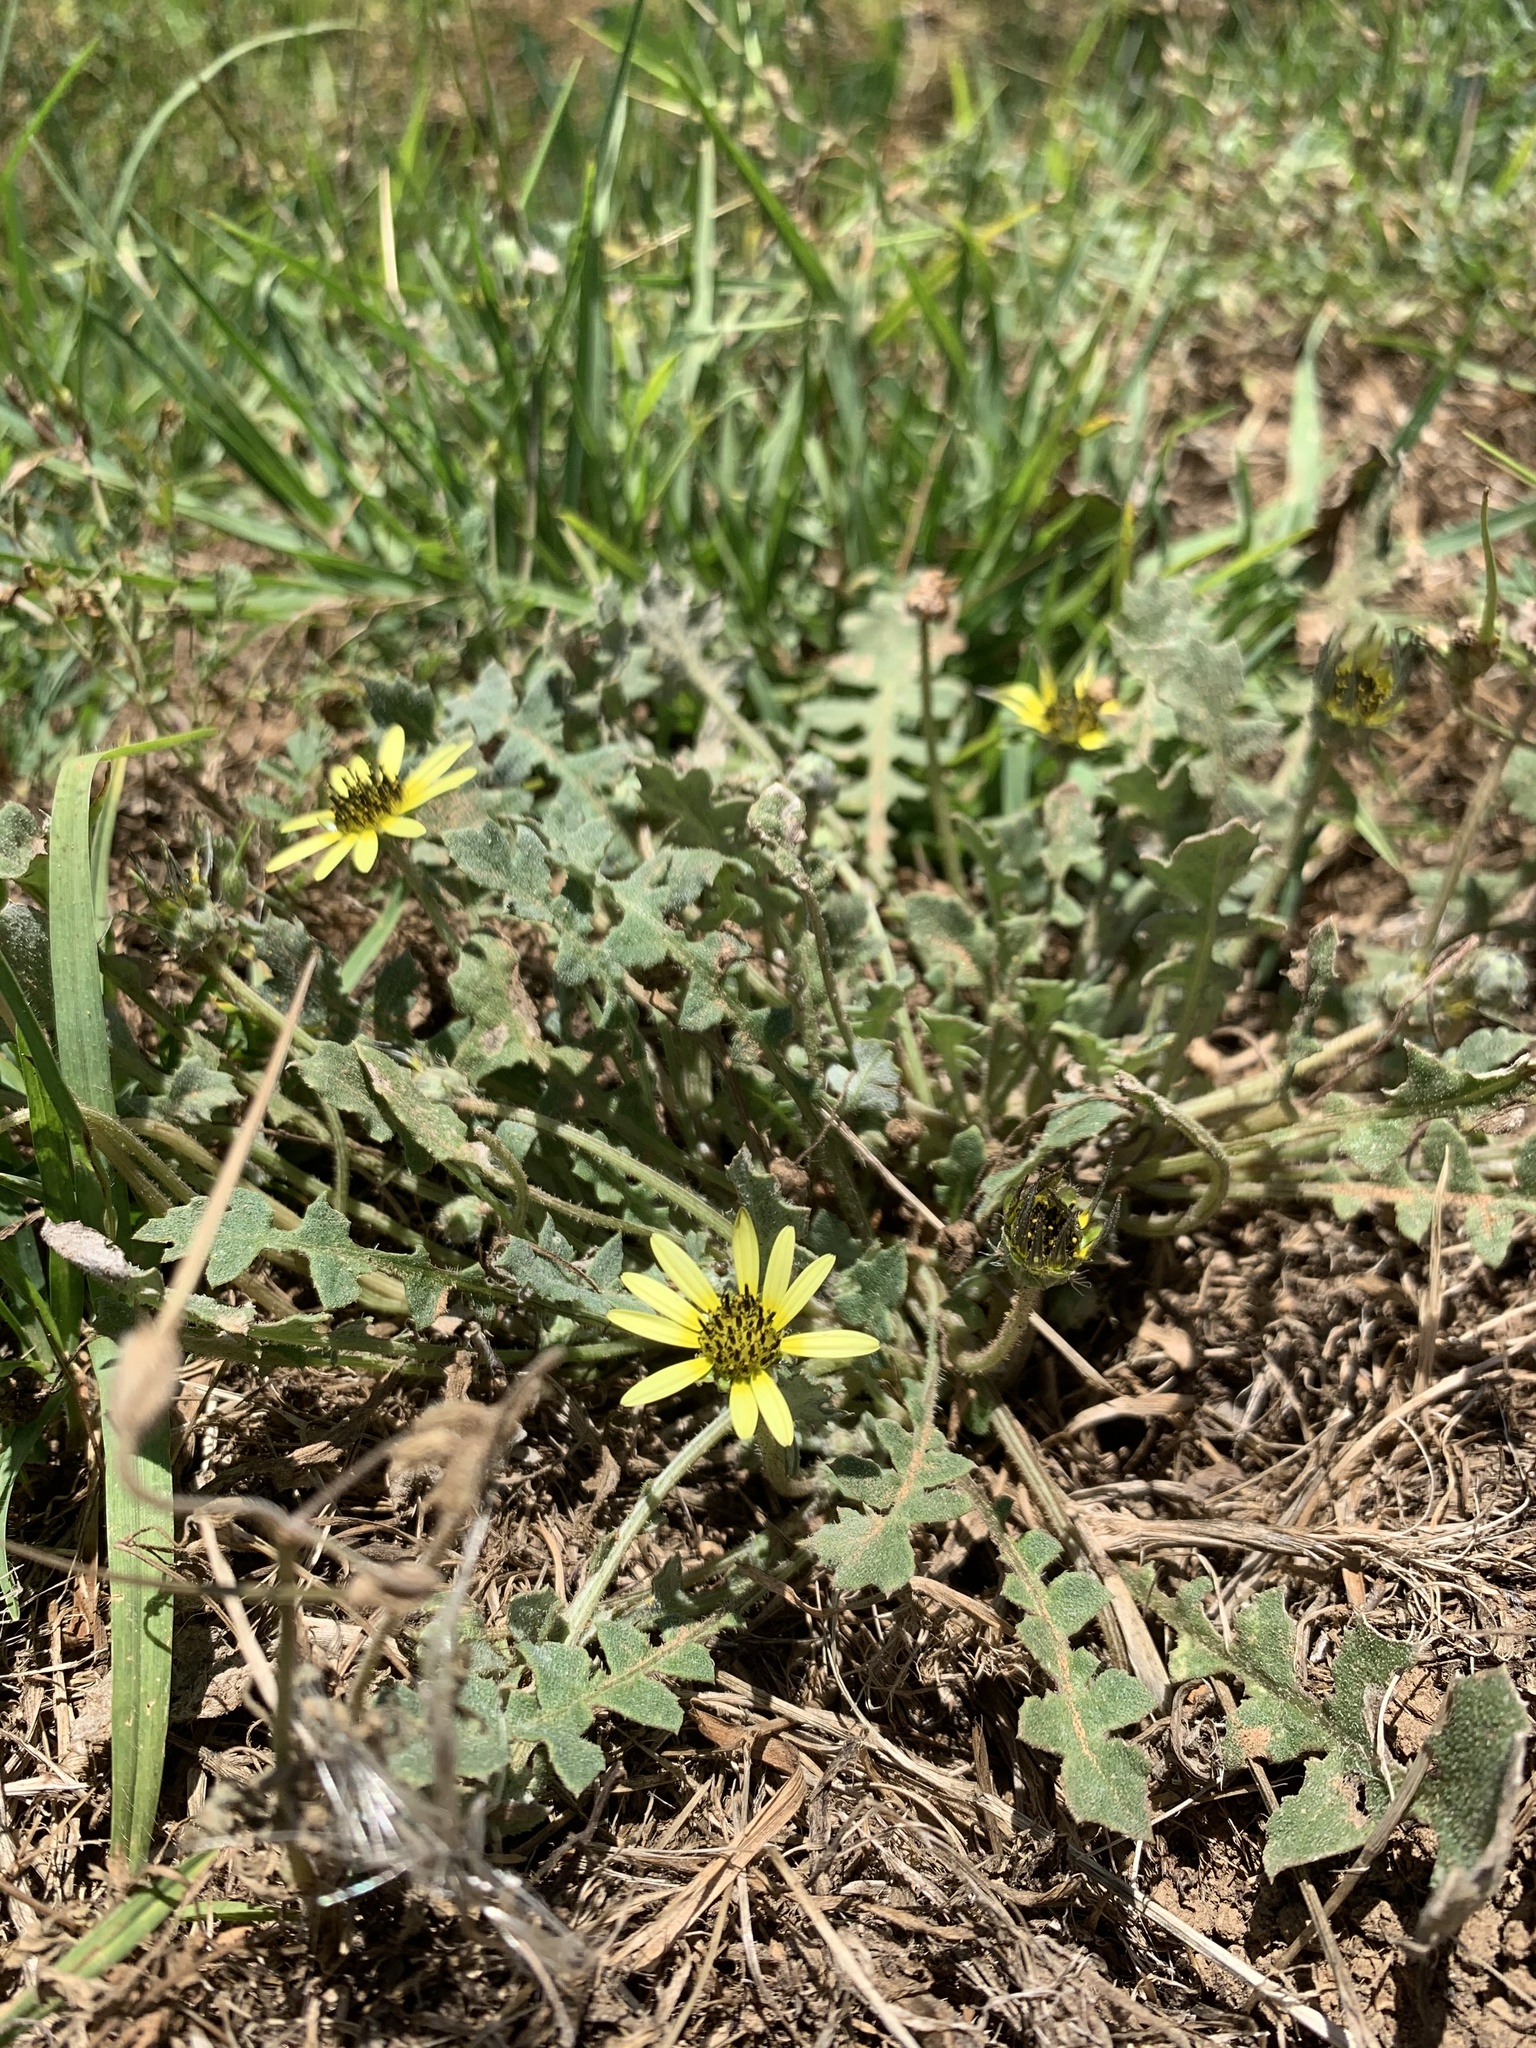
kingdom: Plantae
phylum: Tracheophyta
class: Magnoliopsida
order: Asterales
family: Asteraceae
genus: Arctotheca
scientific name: Arctotheca calendula
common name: Capeweed
